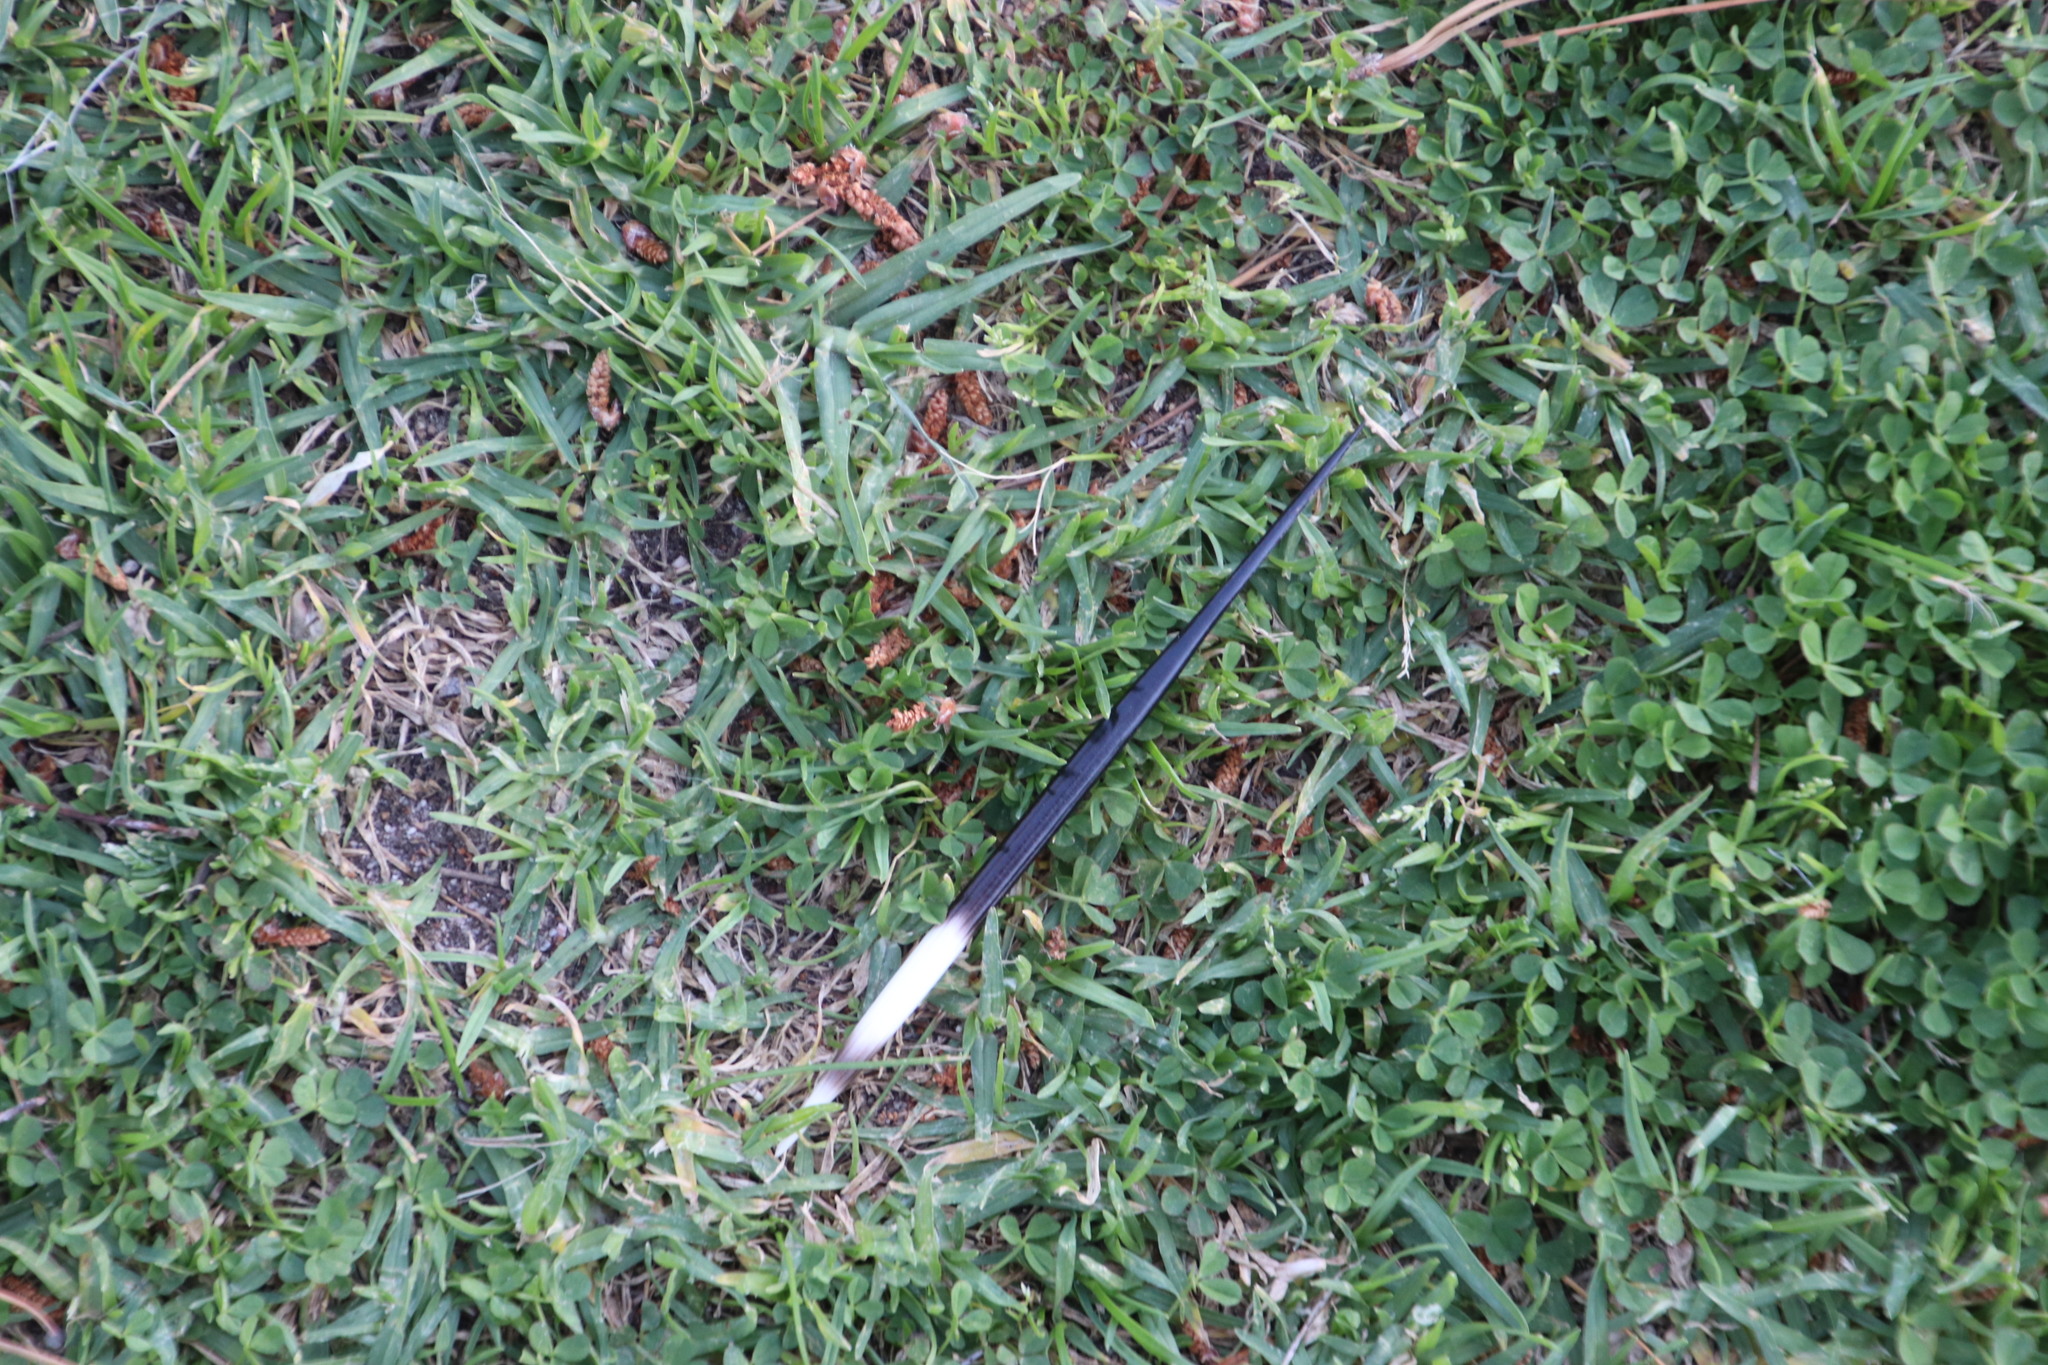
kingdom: Animalia
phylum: Chordata
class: Mammalia
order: Rodentia
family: Hystricidae
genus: Hystrix
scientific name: Hystrix africaeaustralis
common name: Cape porcupine
